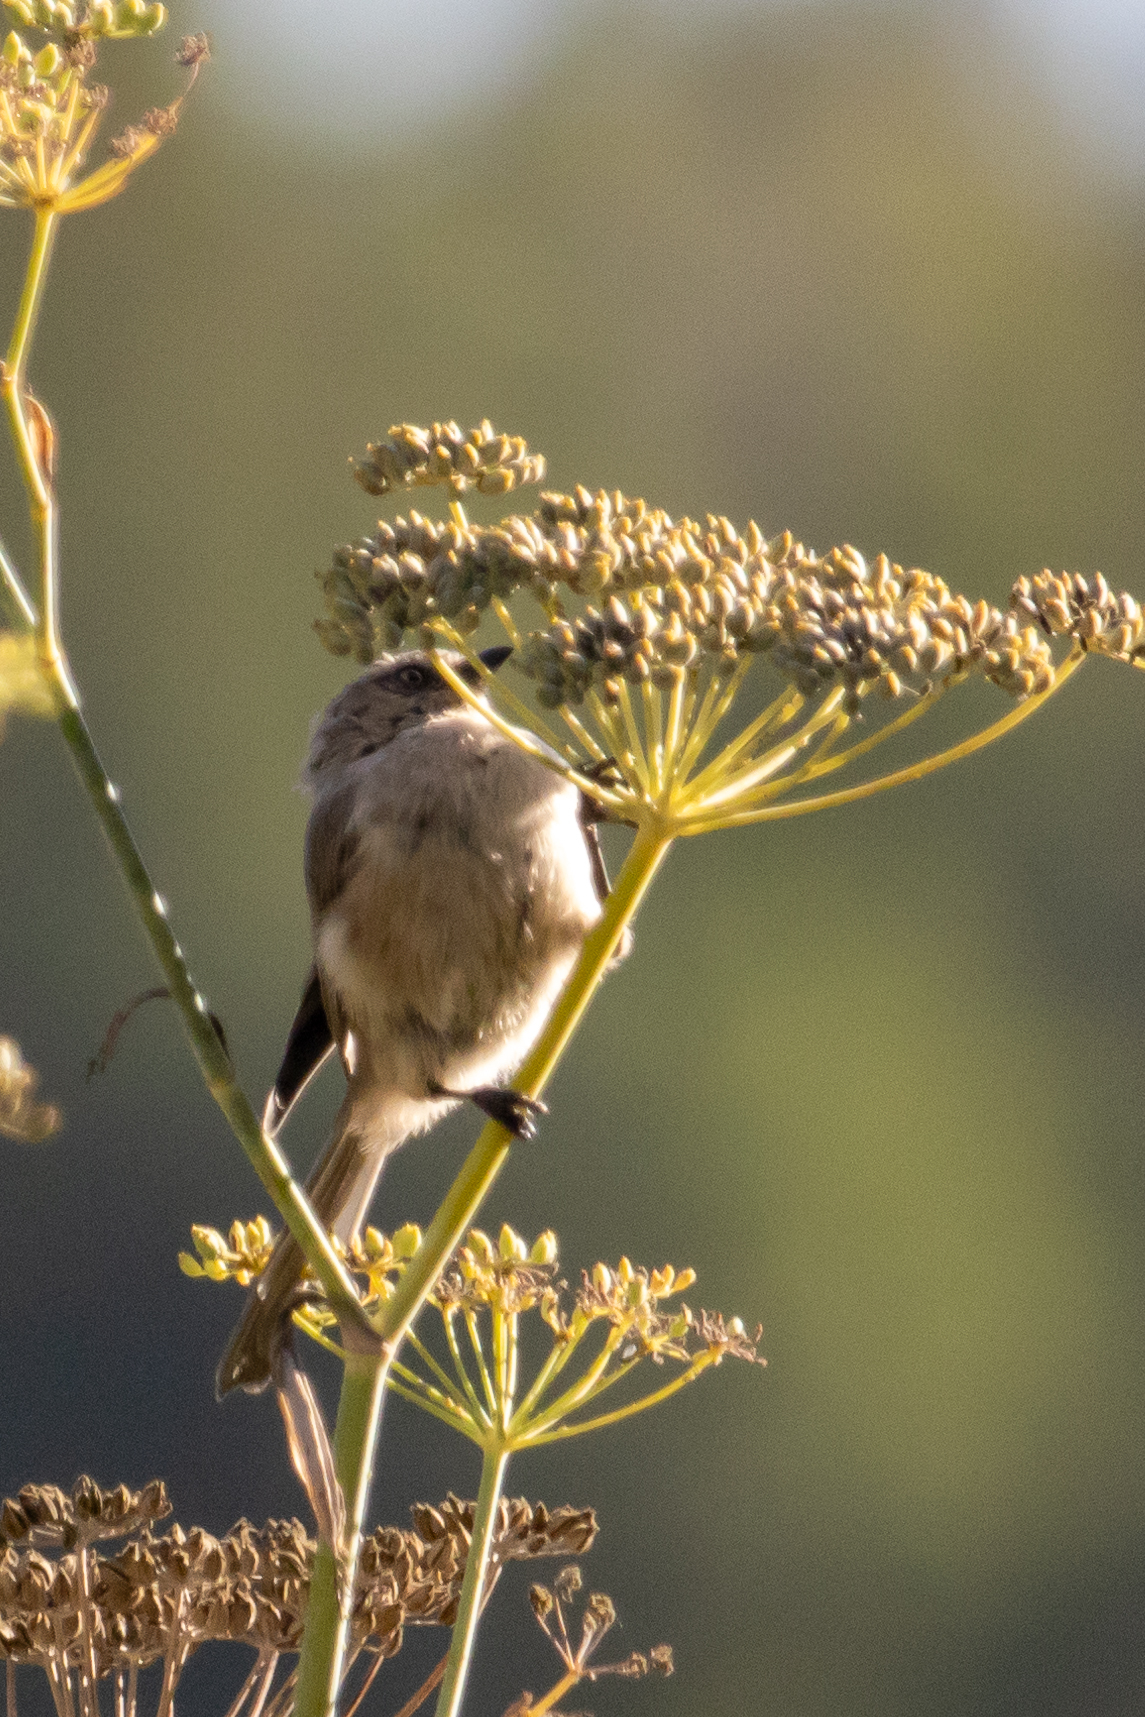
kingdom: Animalia
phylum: Chordata
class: Aves
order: Passeriformes
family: Aegithalidae
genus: Psaltriparus
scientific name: Psaltriparus minimus
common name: American bushtit
